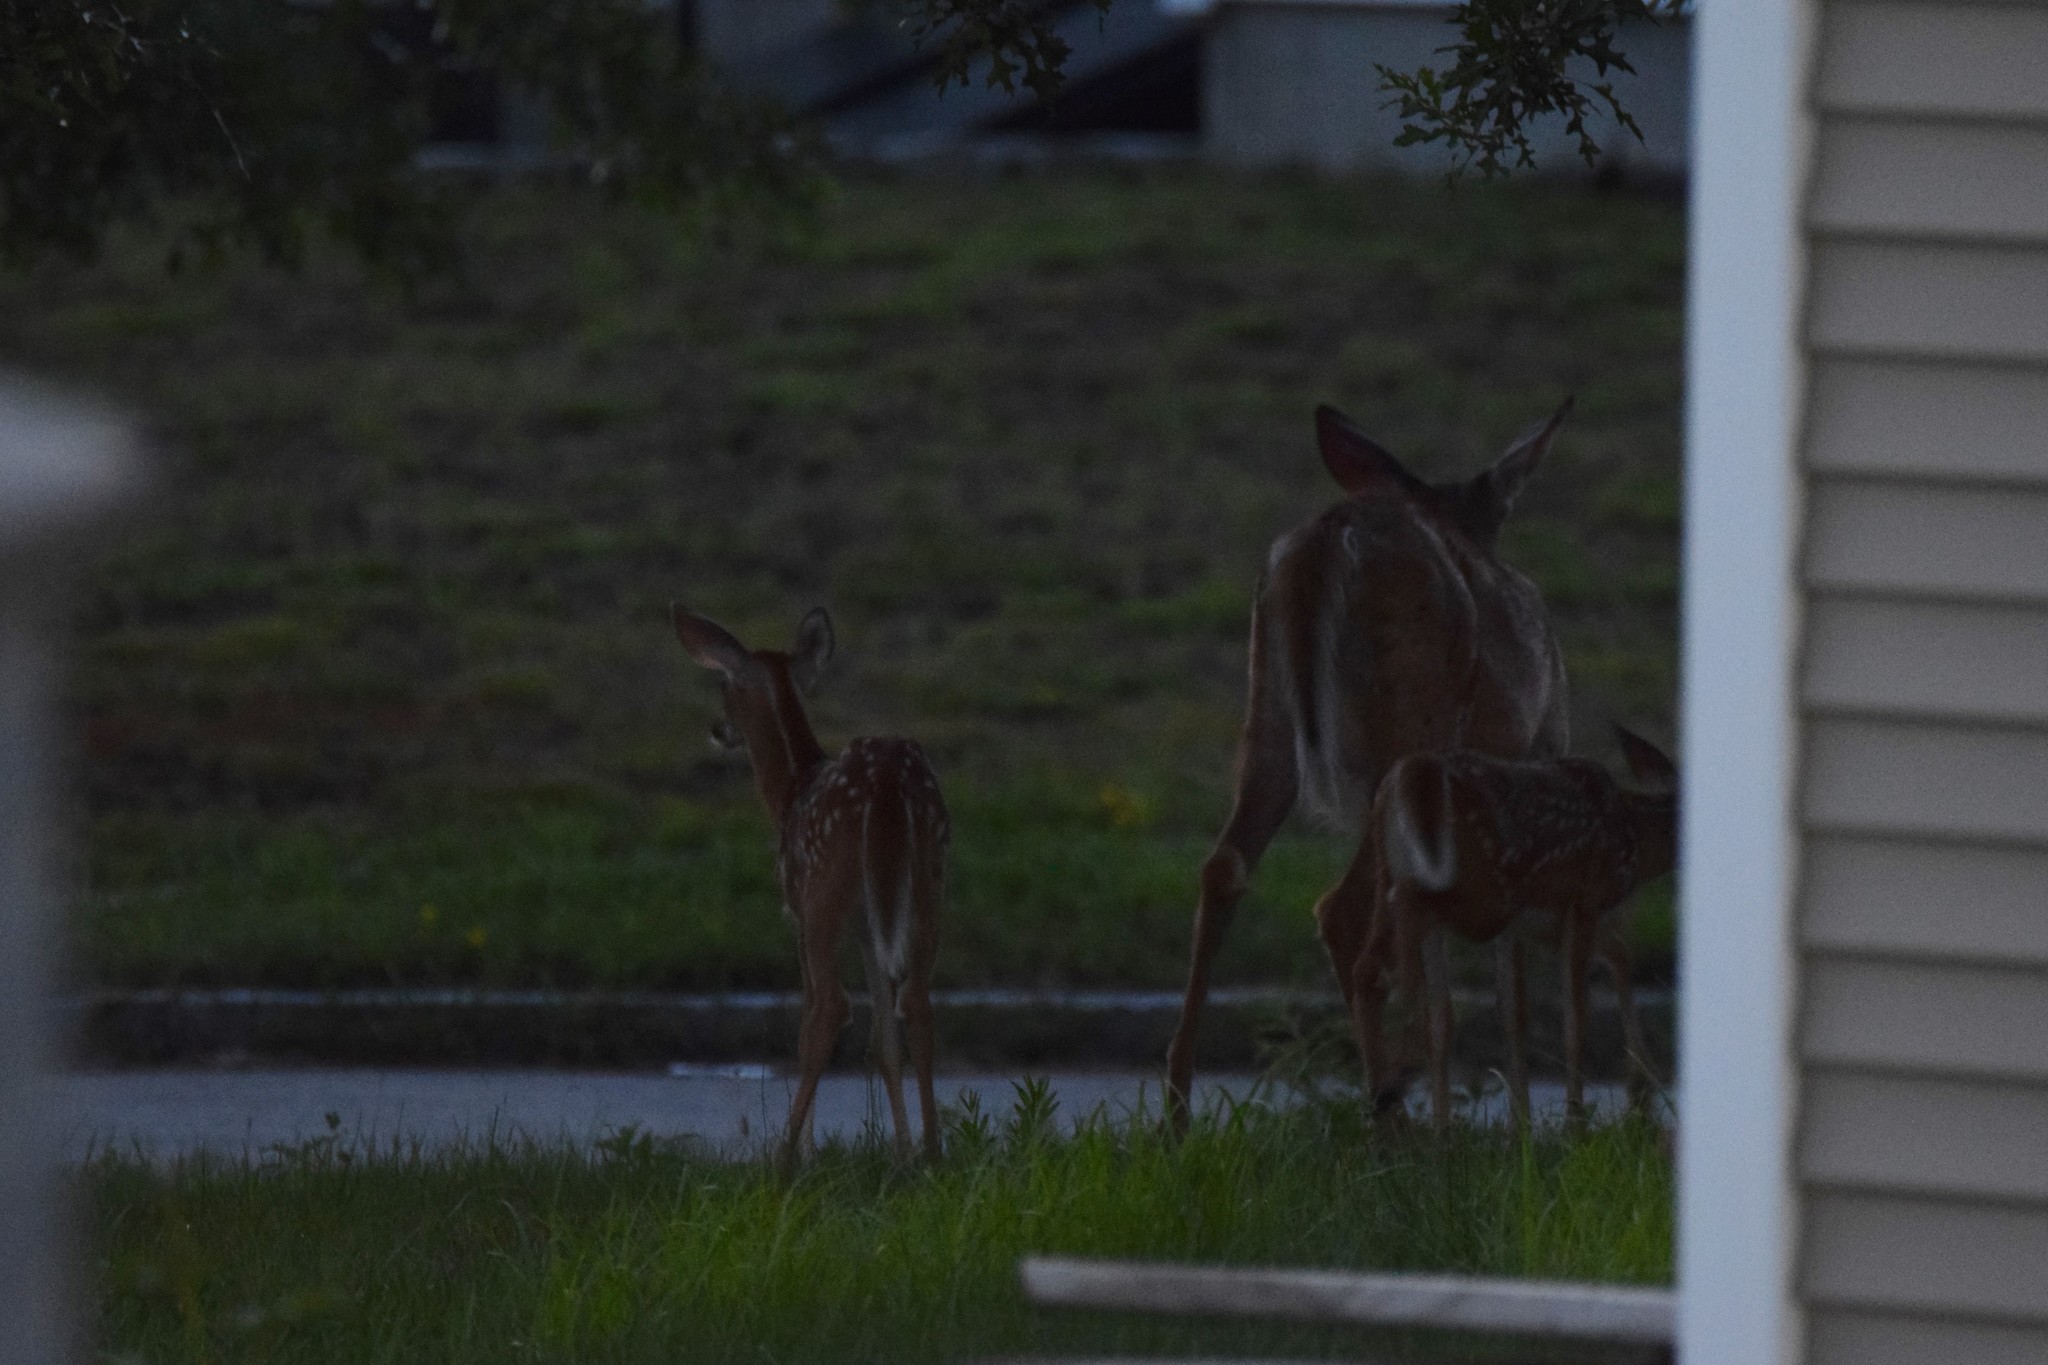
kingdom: Animalia
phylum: Chordata
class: Mammalia
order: Artiodactyla
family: Cervidae
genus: Odocoileus
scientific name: Odocoileus virginianus
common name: White-tailed deer
